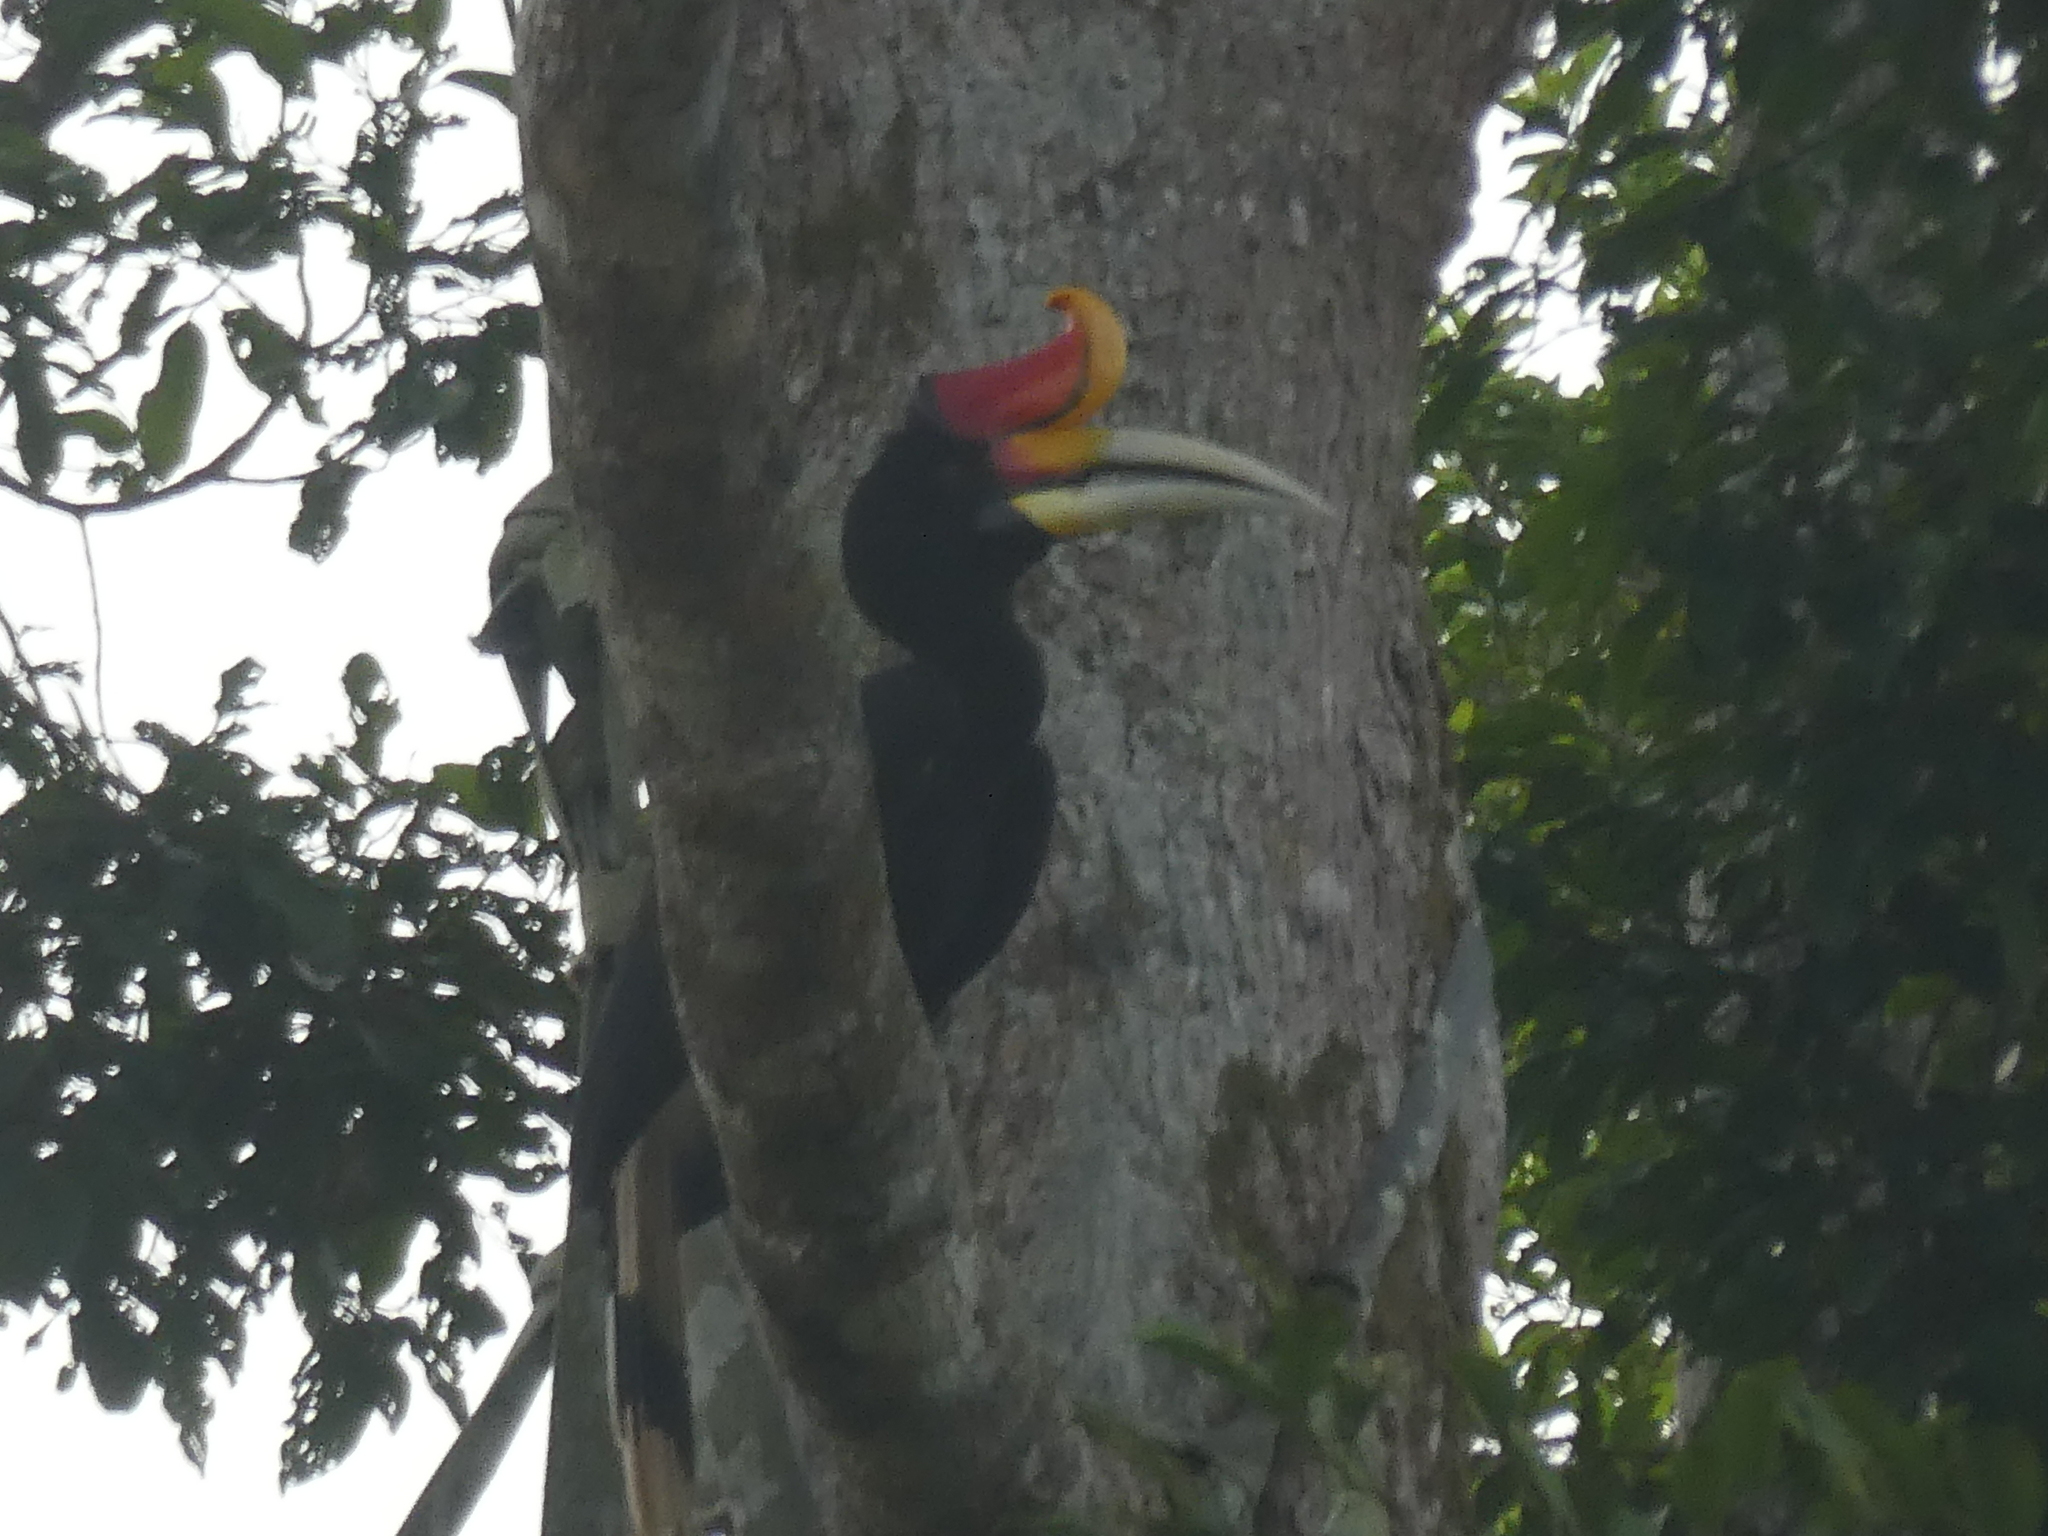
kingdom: Animalia
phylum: Chordata
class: Aves
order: Bucerotiformes
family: Bucerotidae
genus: Buceros
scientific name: Buceros rhinoceros
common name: Rhinoceros hornbill
